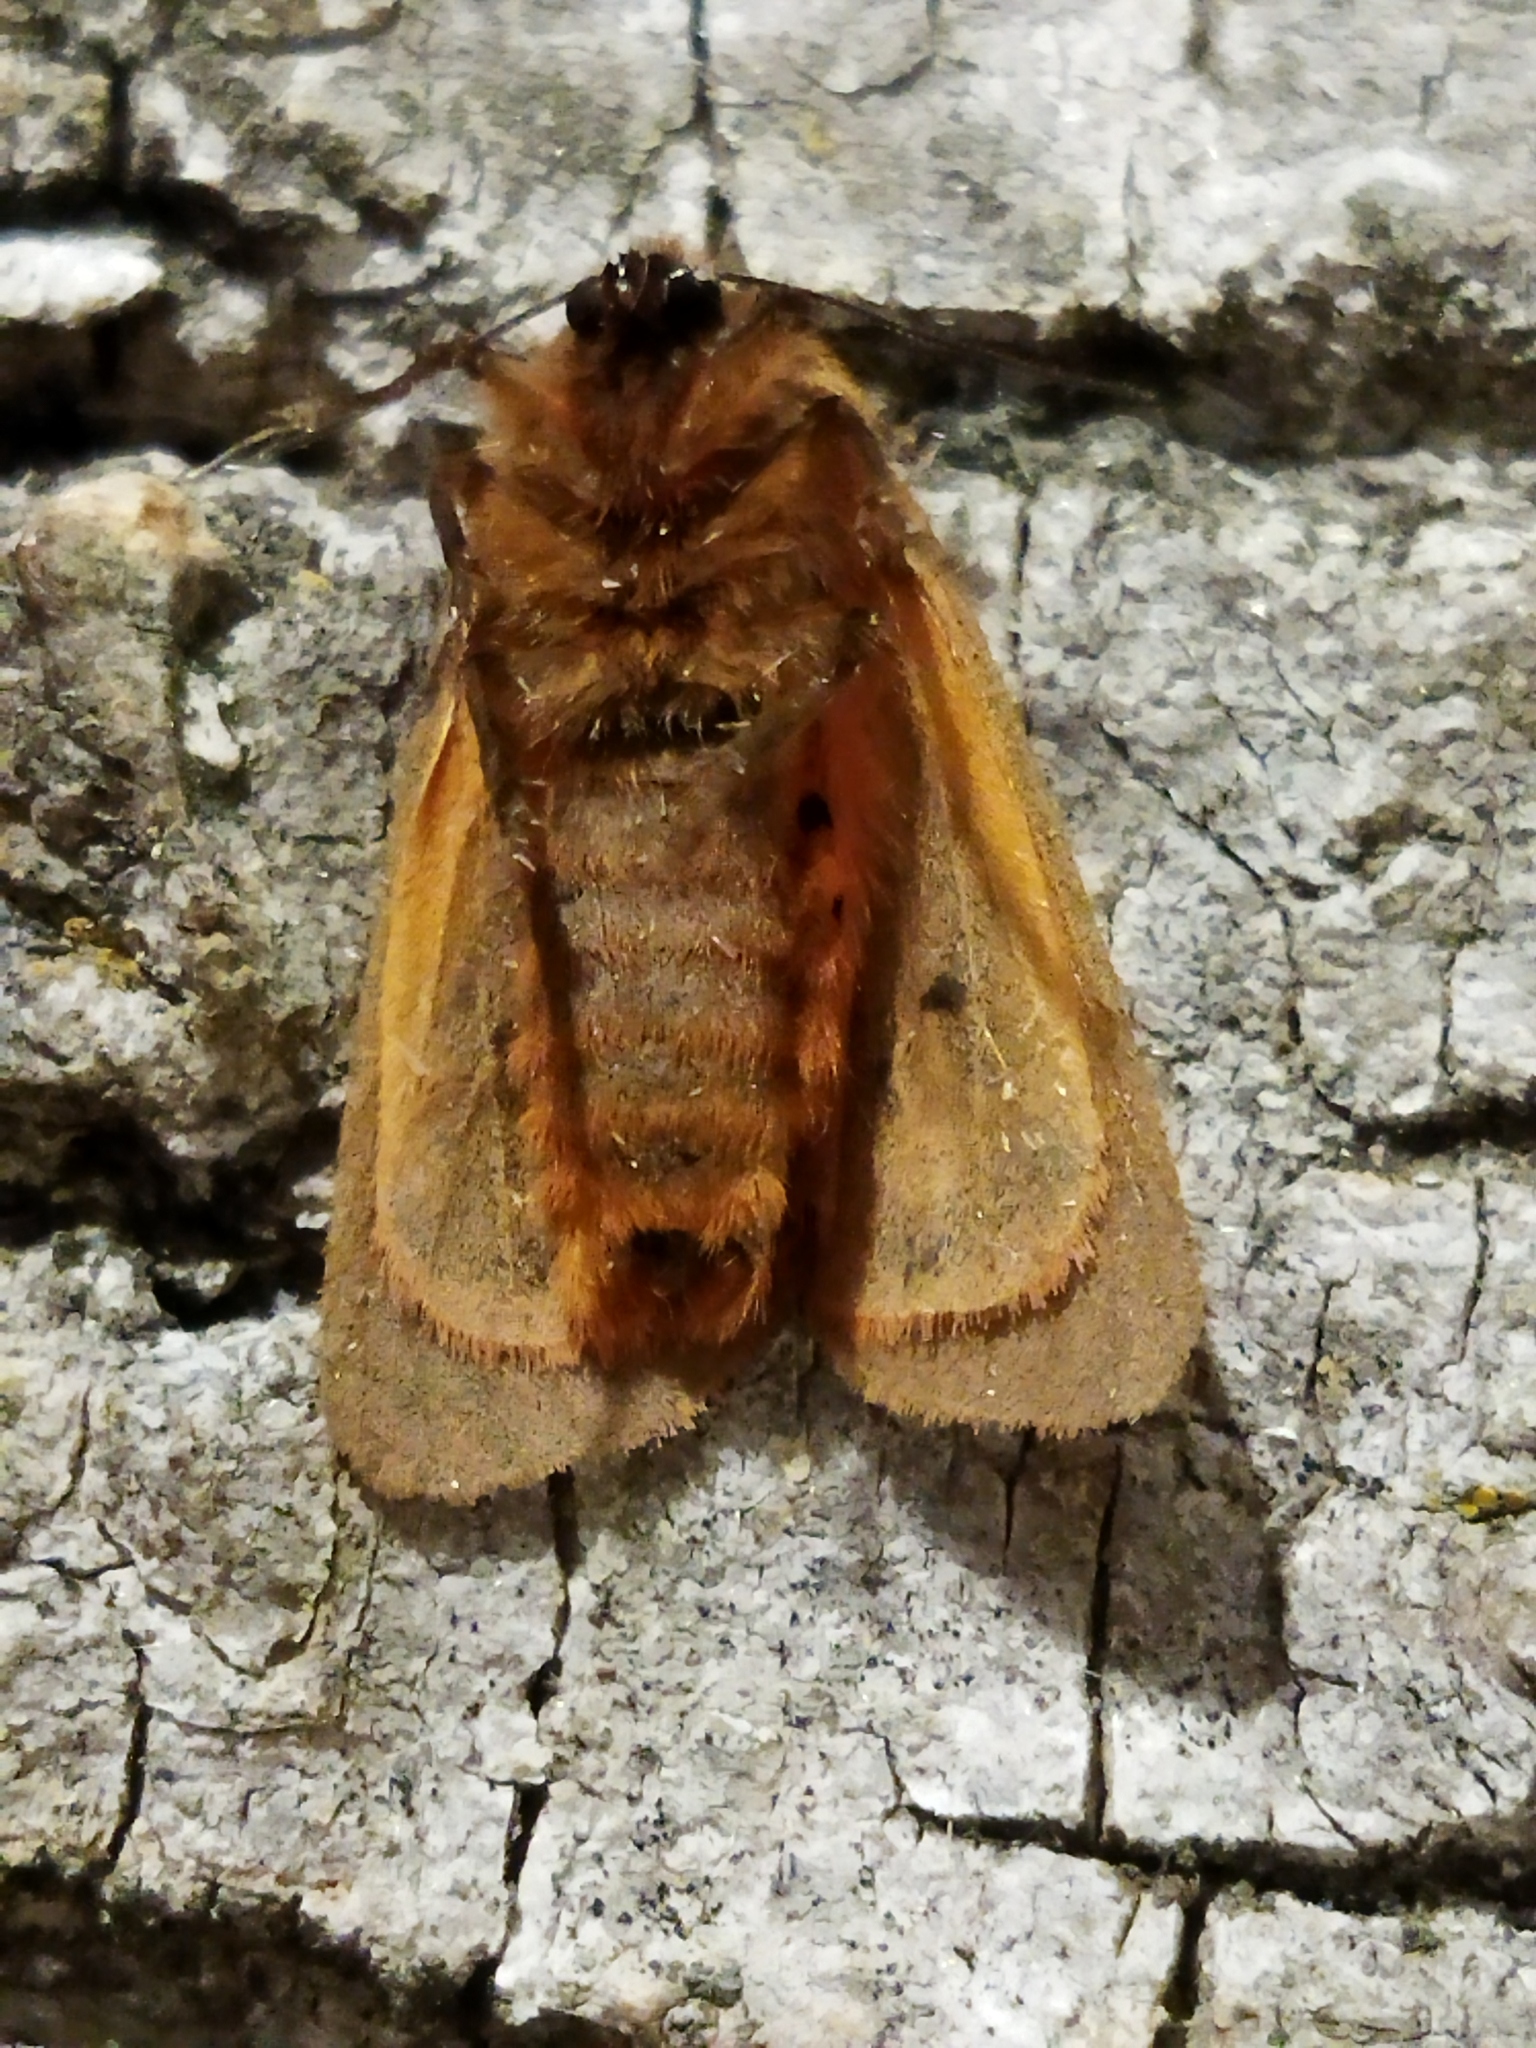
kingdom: Animalia
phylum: Arthropoda
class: Insecta
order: Lepidoptera
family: Erebidae
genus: Phragmatobia
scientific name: Phragmatobia fuliginosa
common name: Ruby tiger
